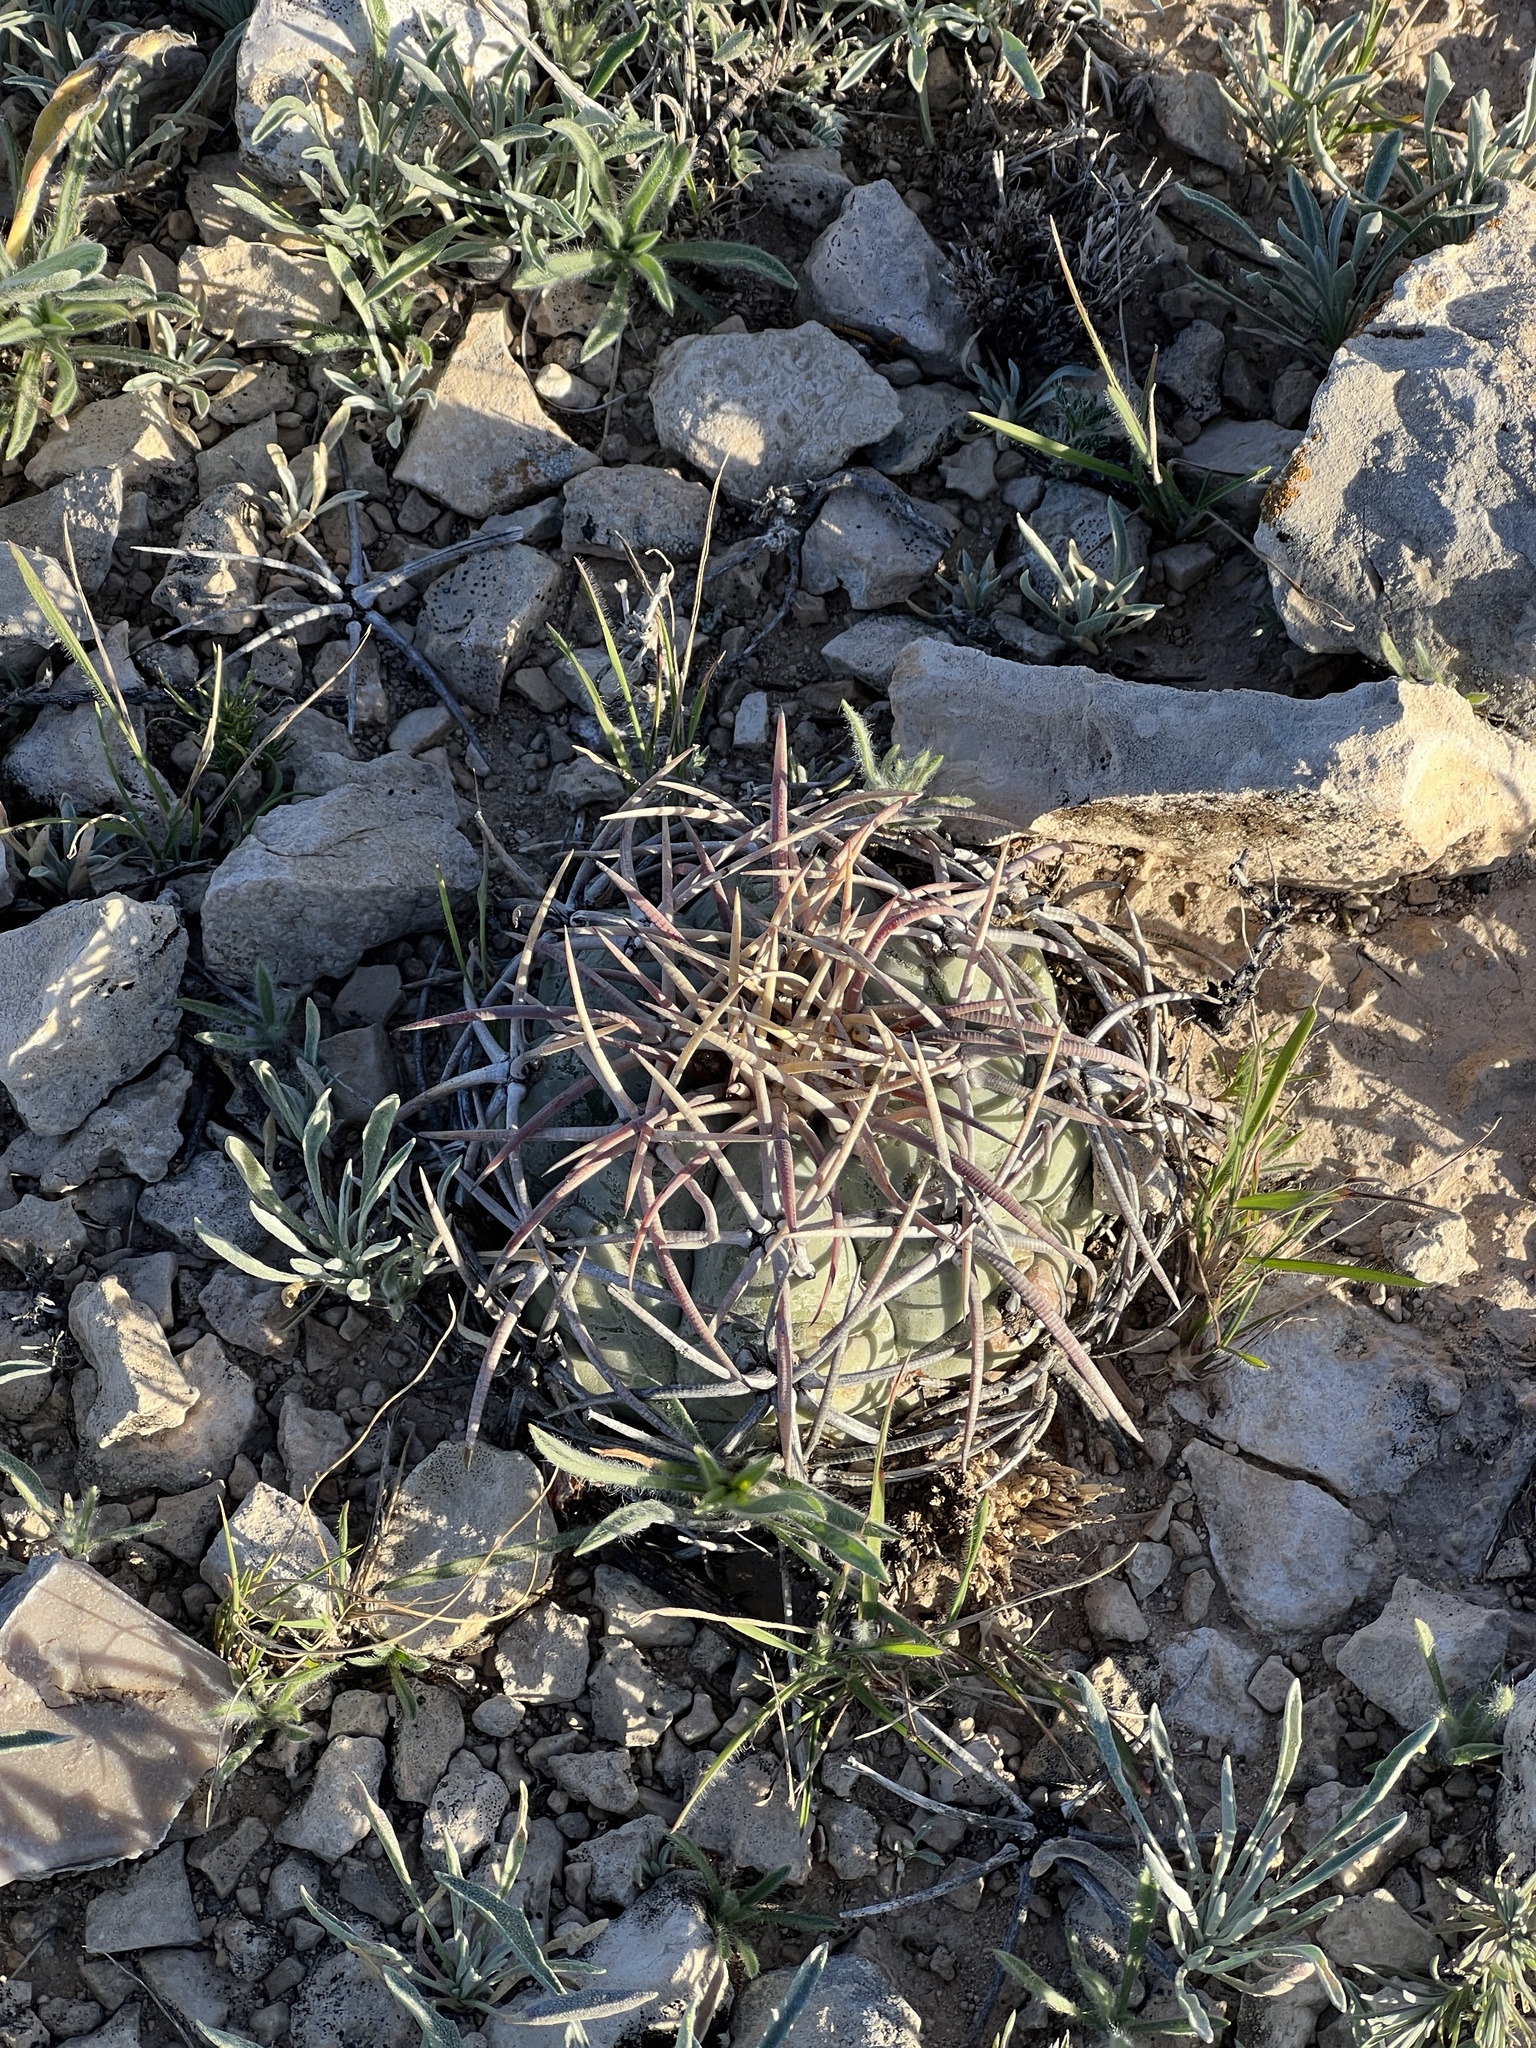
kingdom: Plantae
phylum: Tracheophyta
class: Magnoliopsida
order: Caryophyllales
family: Cactaceae
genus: Echinocactus
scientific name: Echinocactus horizonthalonius
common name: Devilshead
